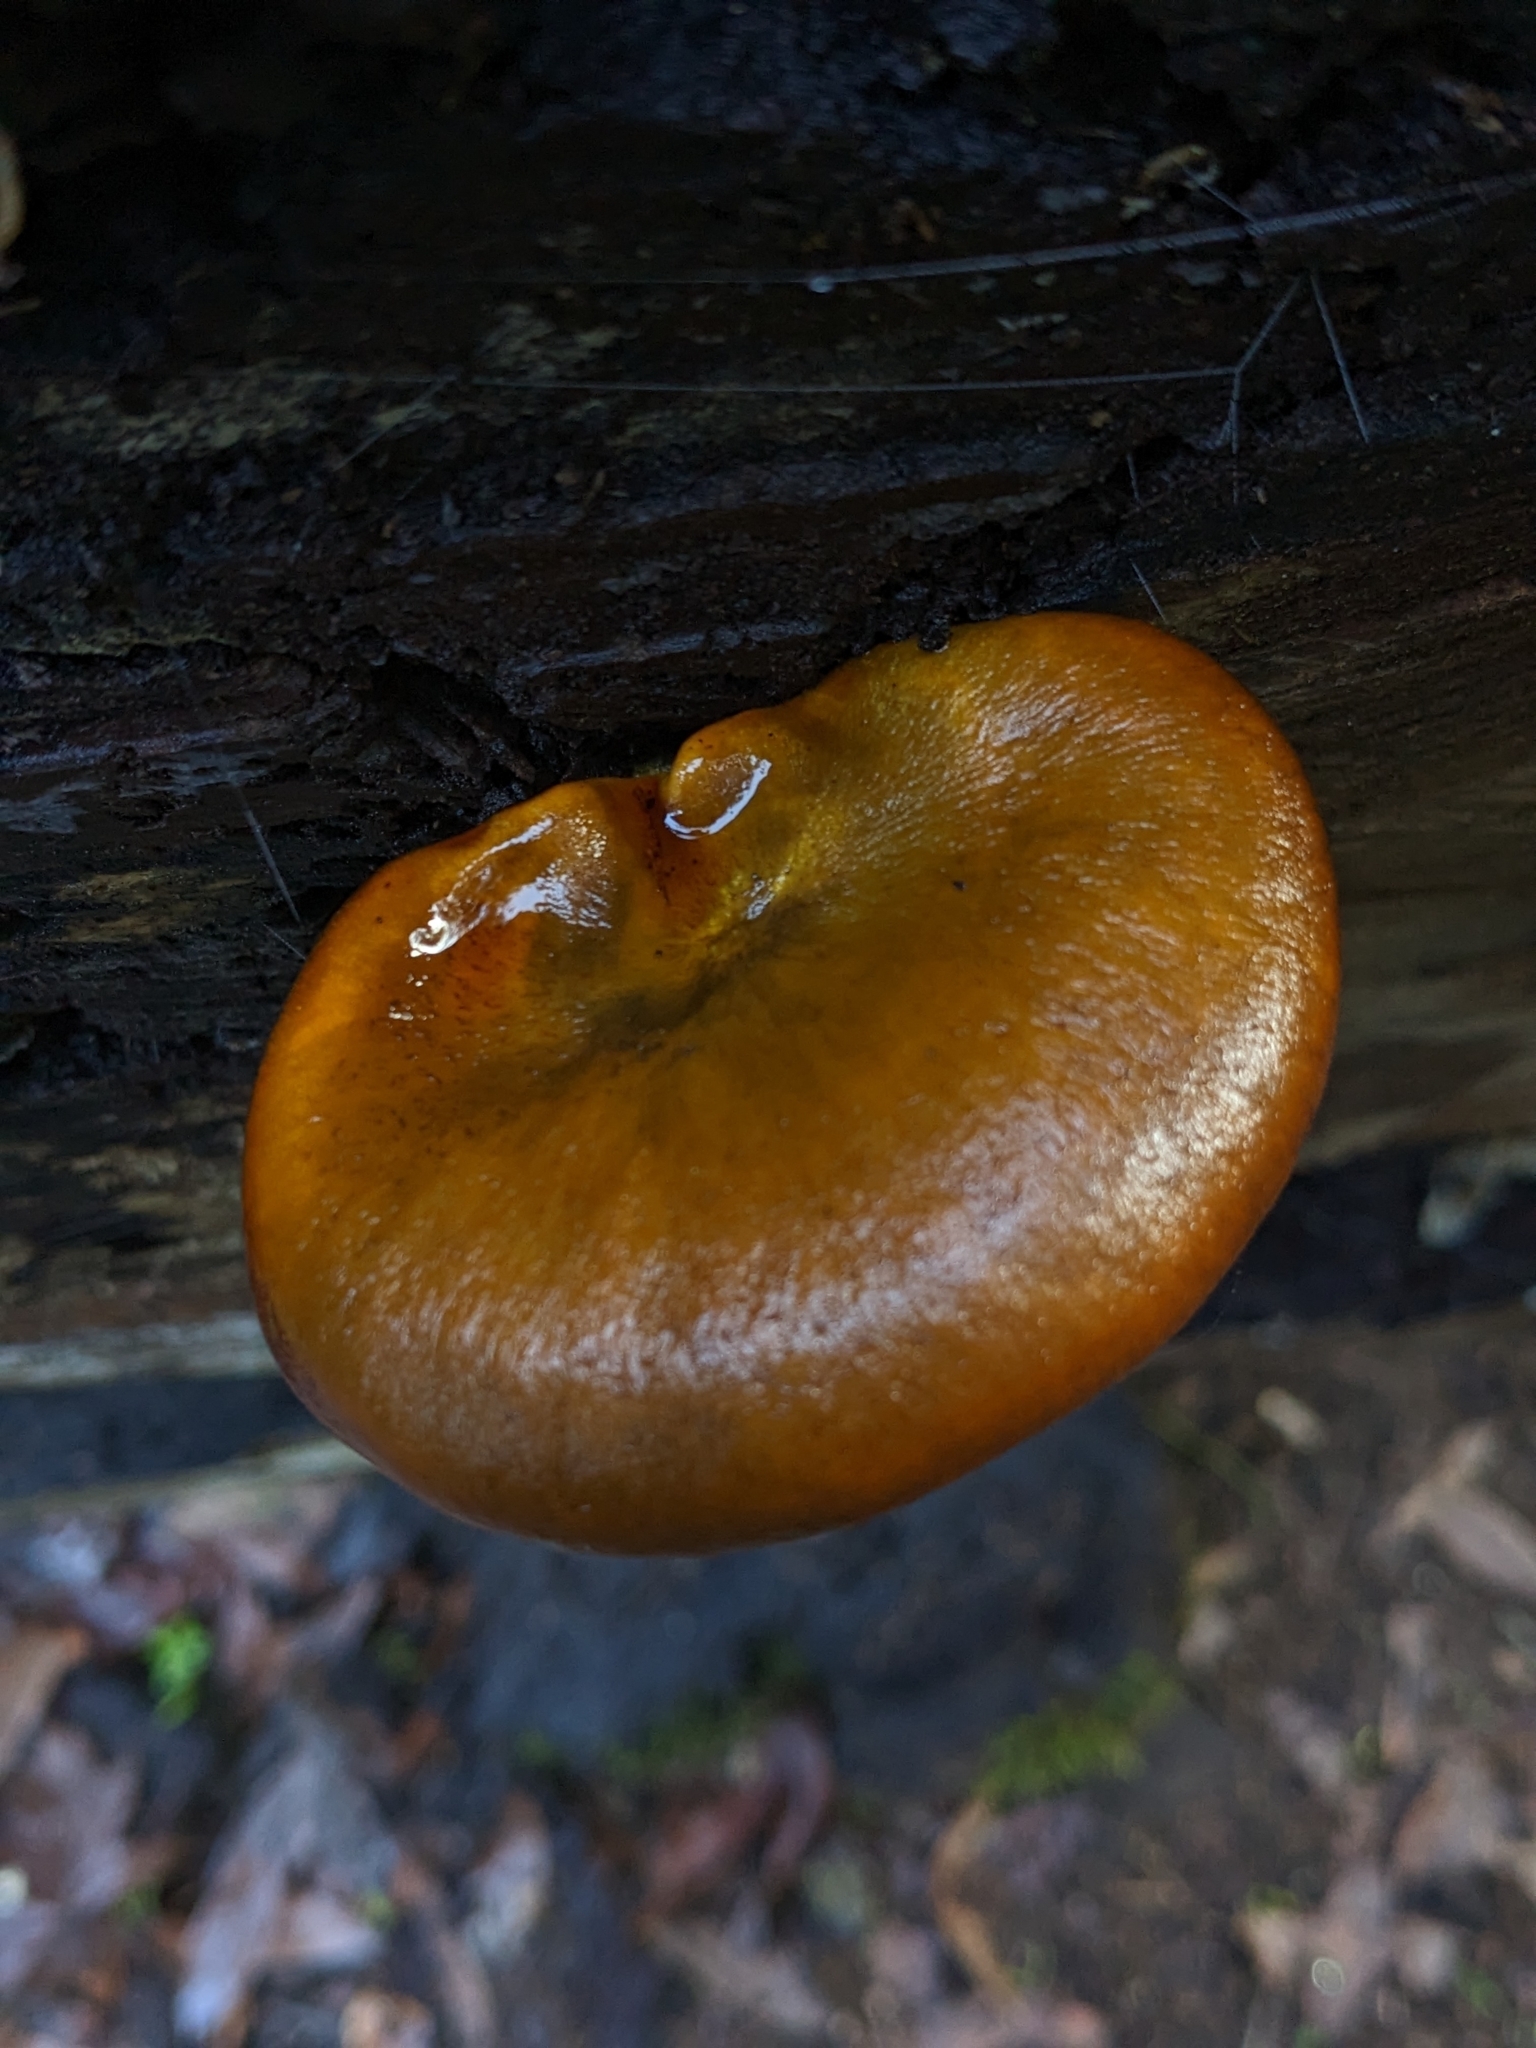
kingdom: Fungi
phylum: Basidiomycota
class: Agaricomycetes
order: Agaricales
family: Omphalotaceae
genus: Omphalotus
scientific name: Omphalotus olivascens
